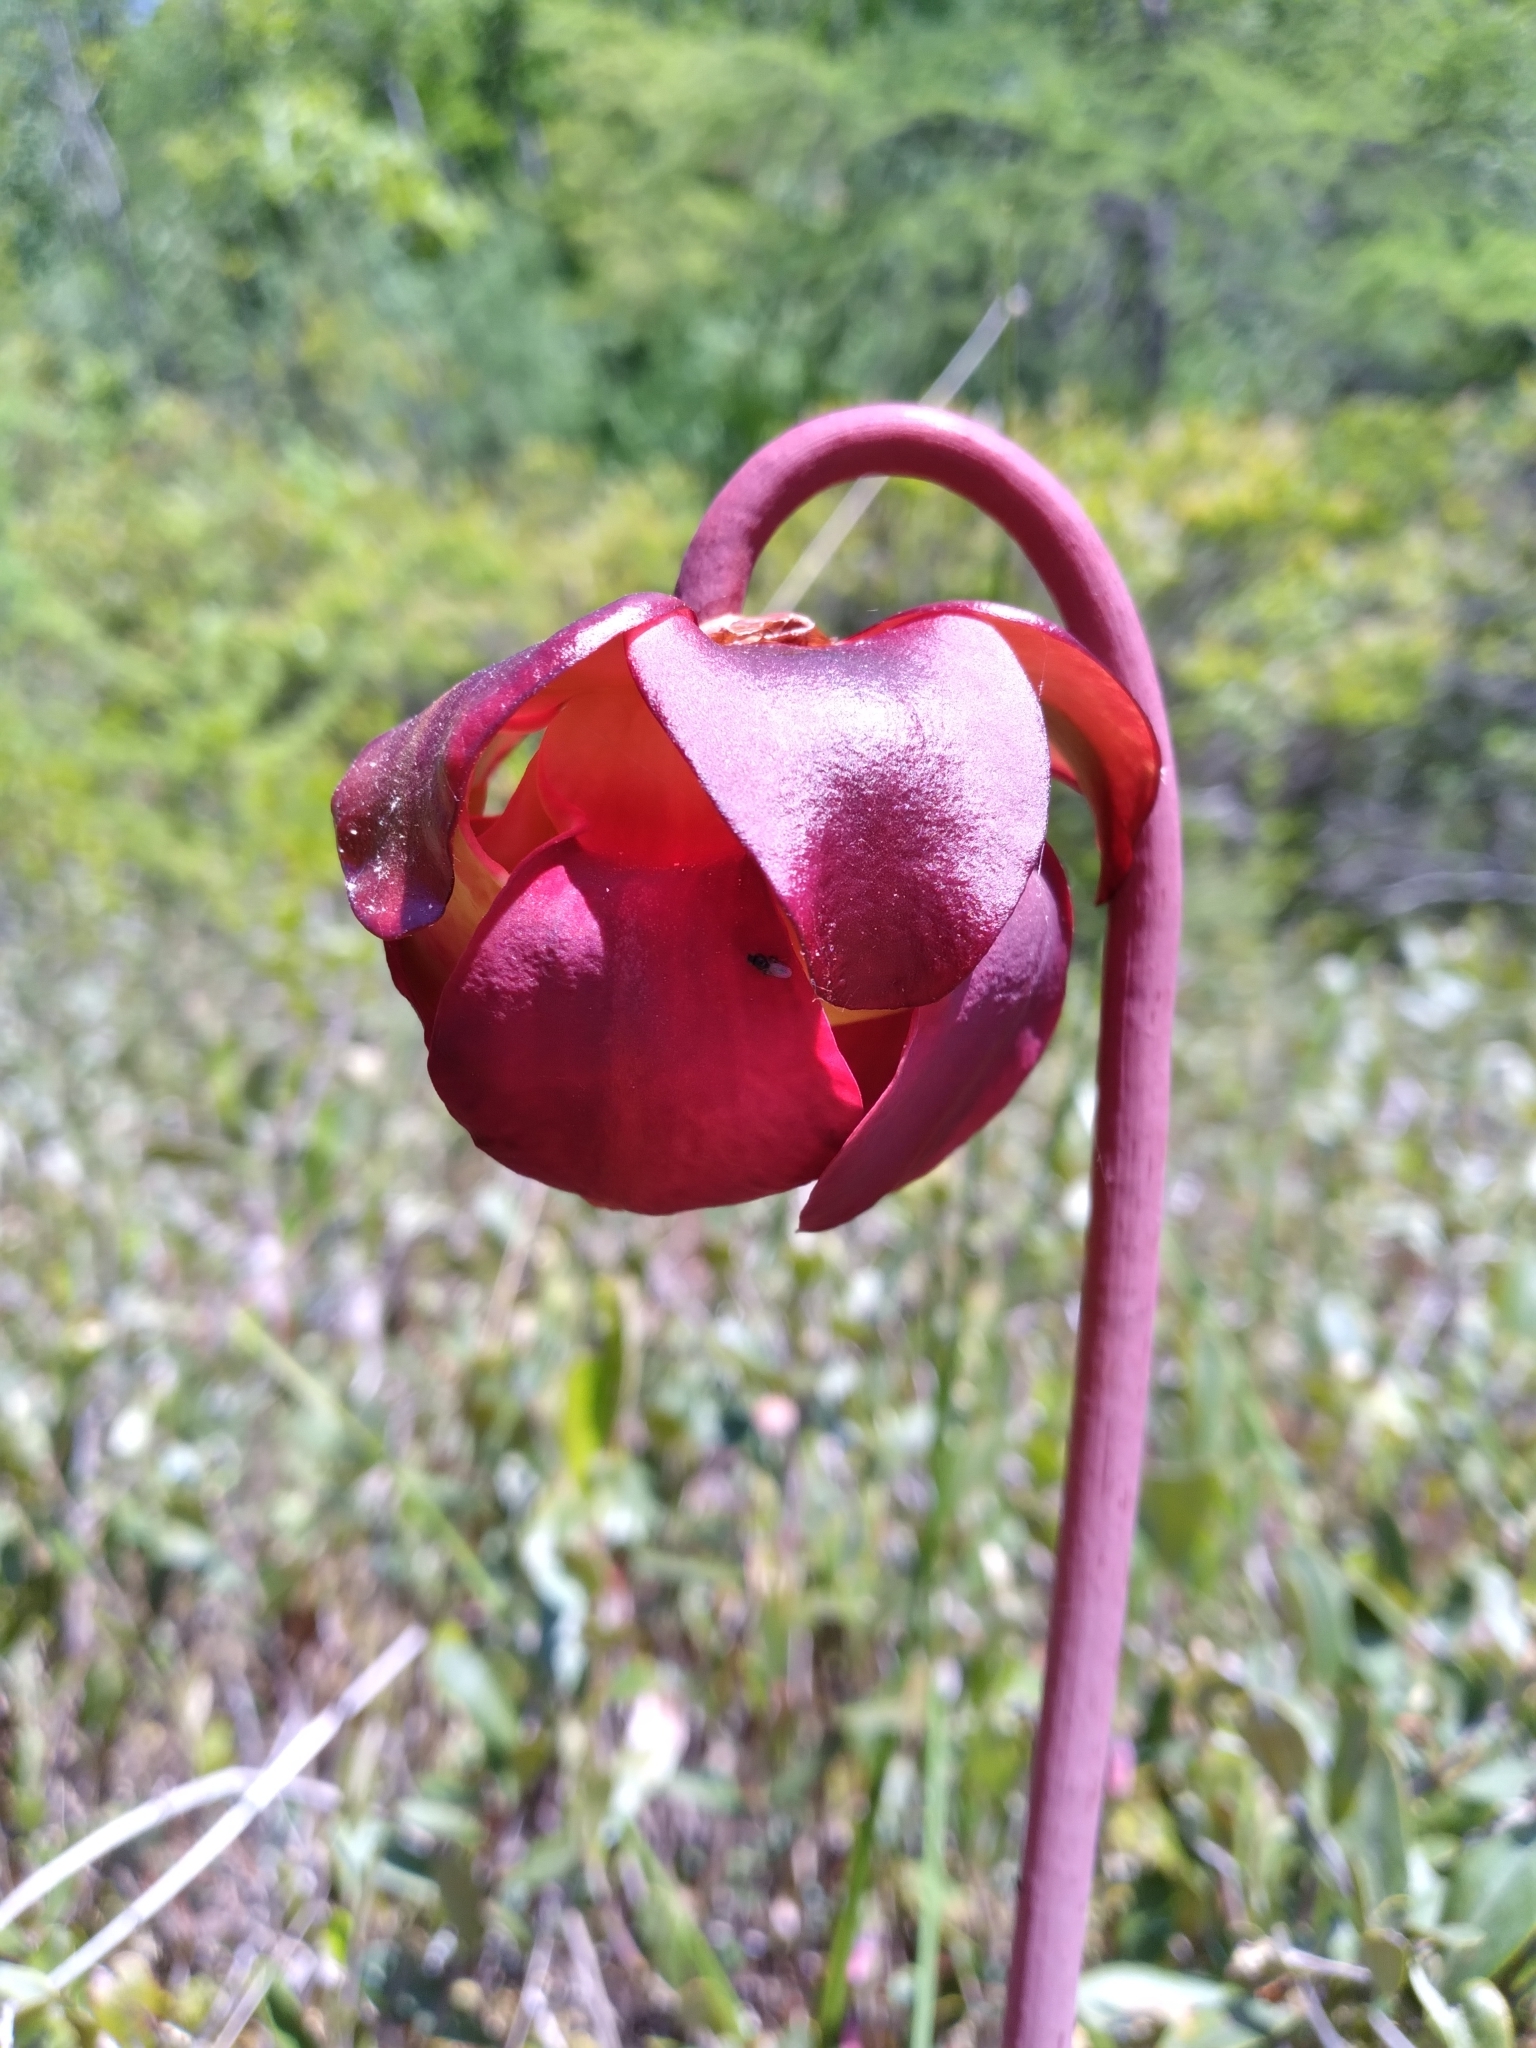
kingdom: Plantae
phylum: Tracheophyta
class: Magnoliopsida
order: Ericales
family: Sarraceniaceae
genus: Sarracenia
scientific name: Sarracenia purpurea
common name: Pitcherplant
